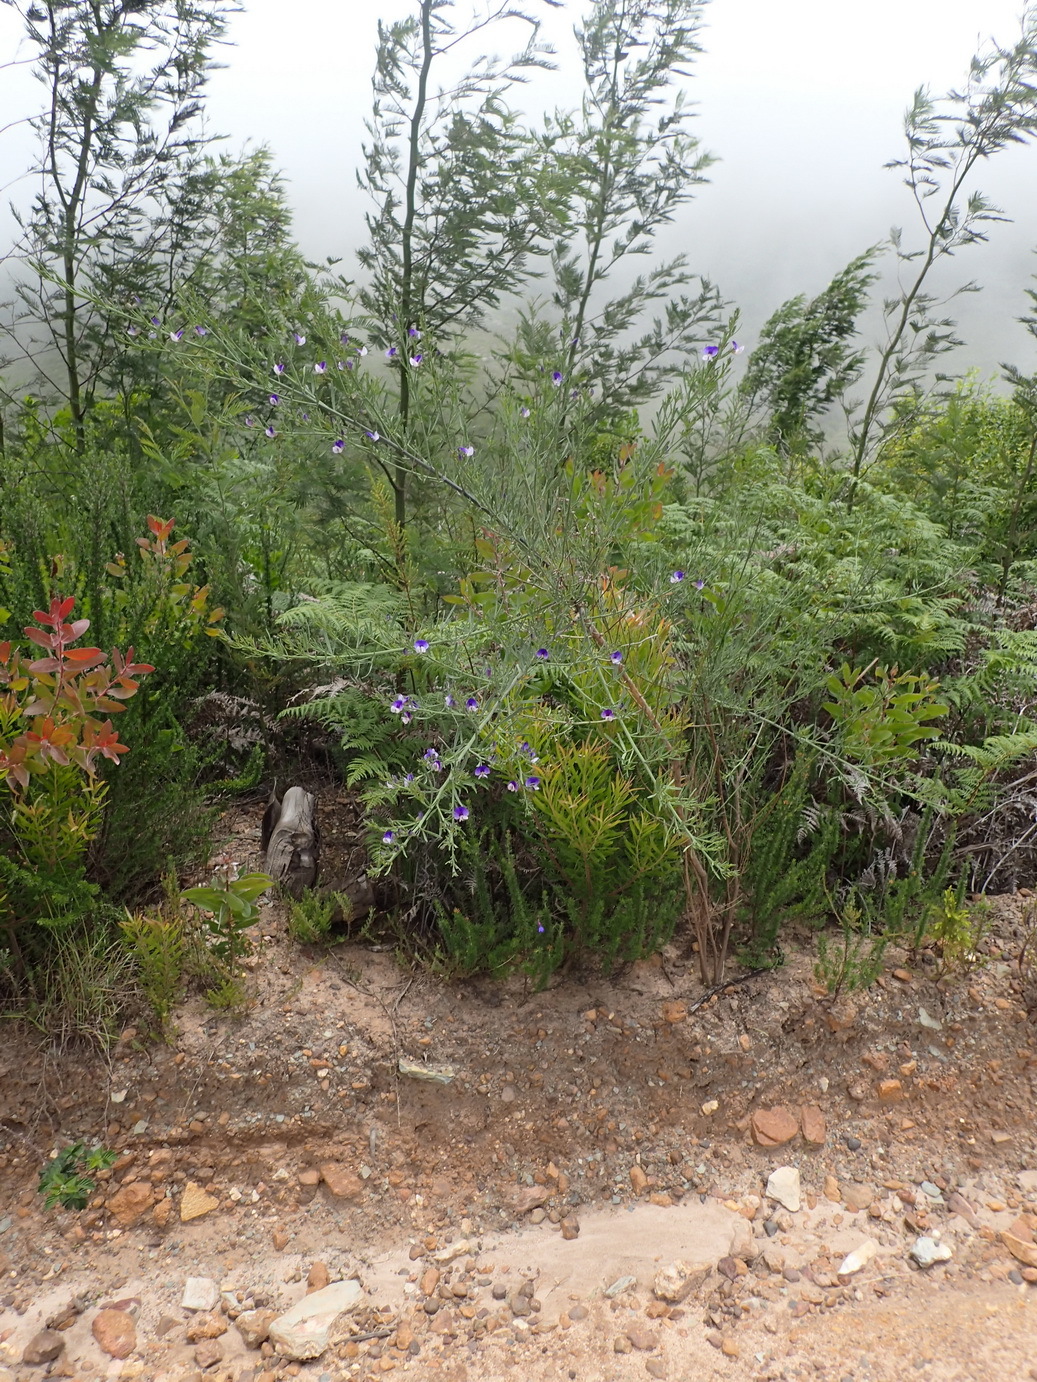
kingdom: Plantae
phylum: Tracheophyta
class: Magnoliopsida
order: Fabales
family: Fabaceae
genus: Psoralea
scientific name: Psoralea axillaris
